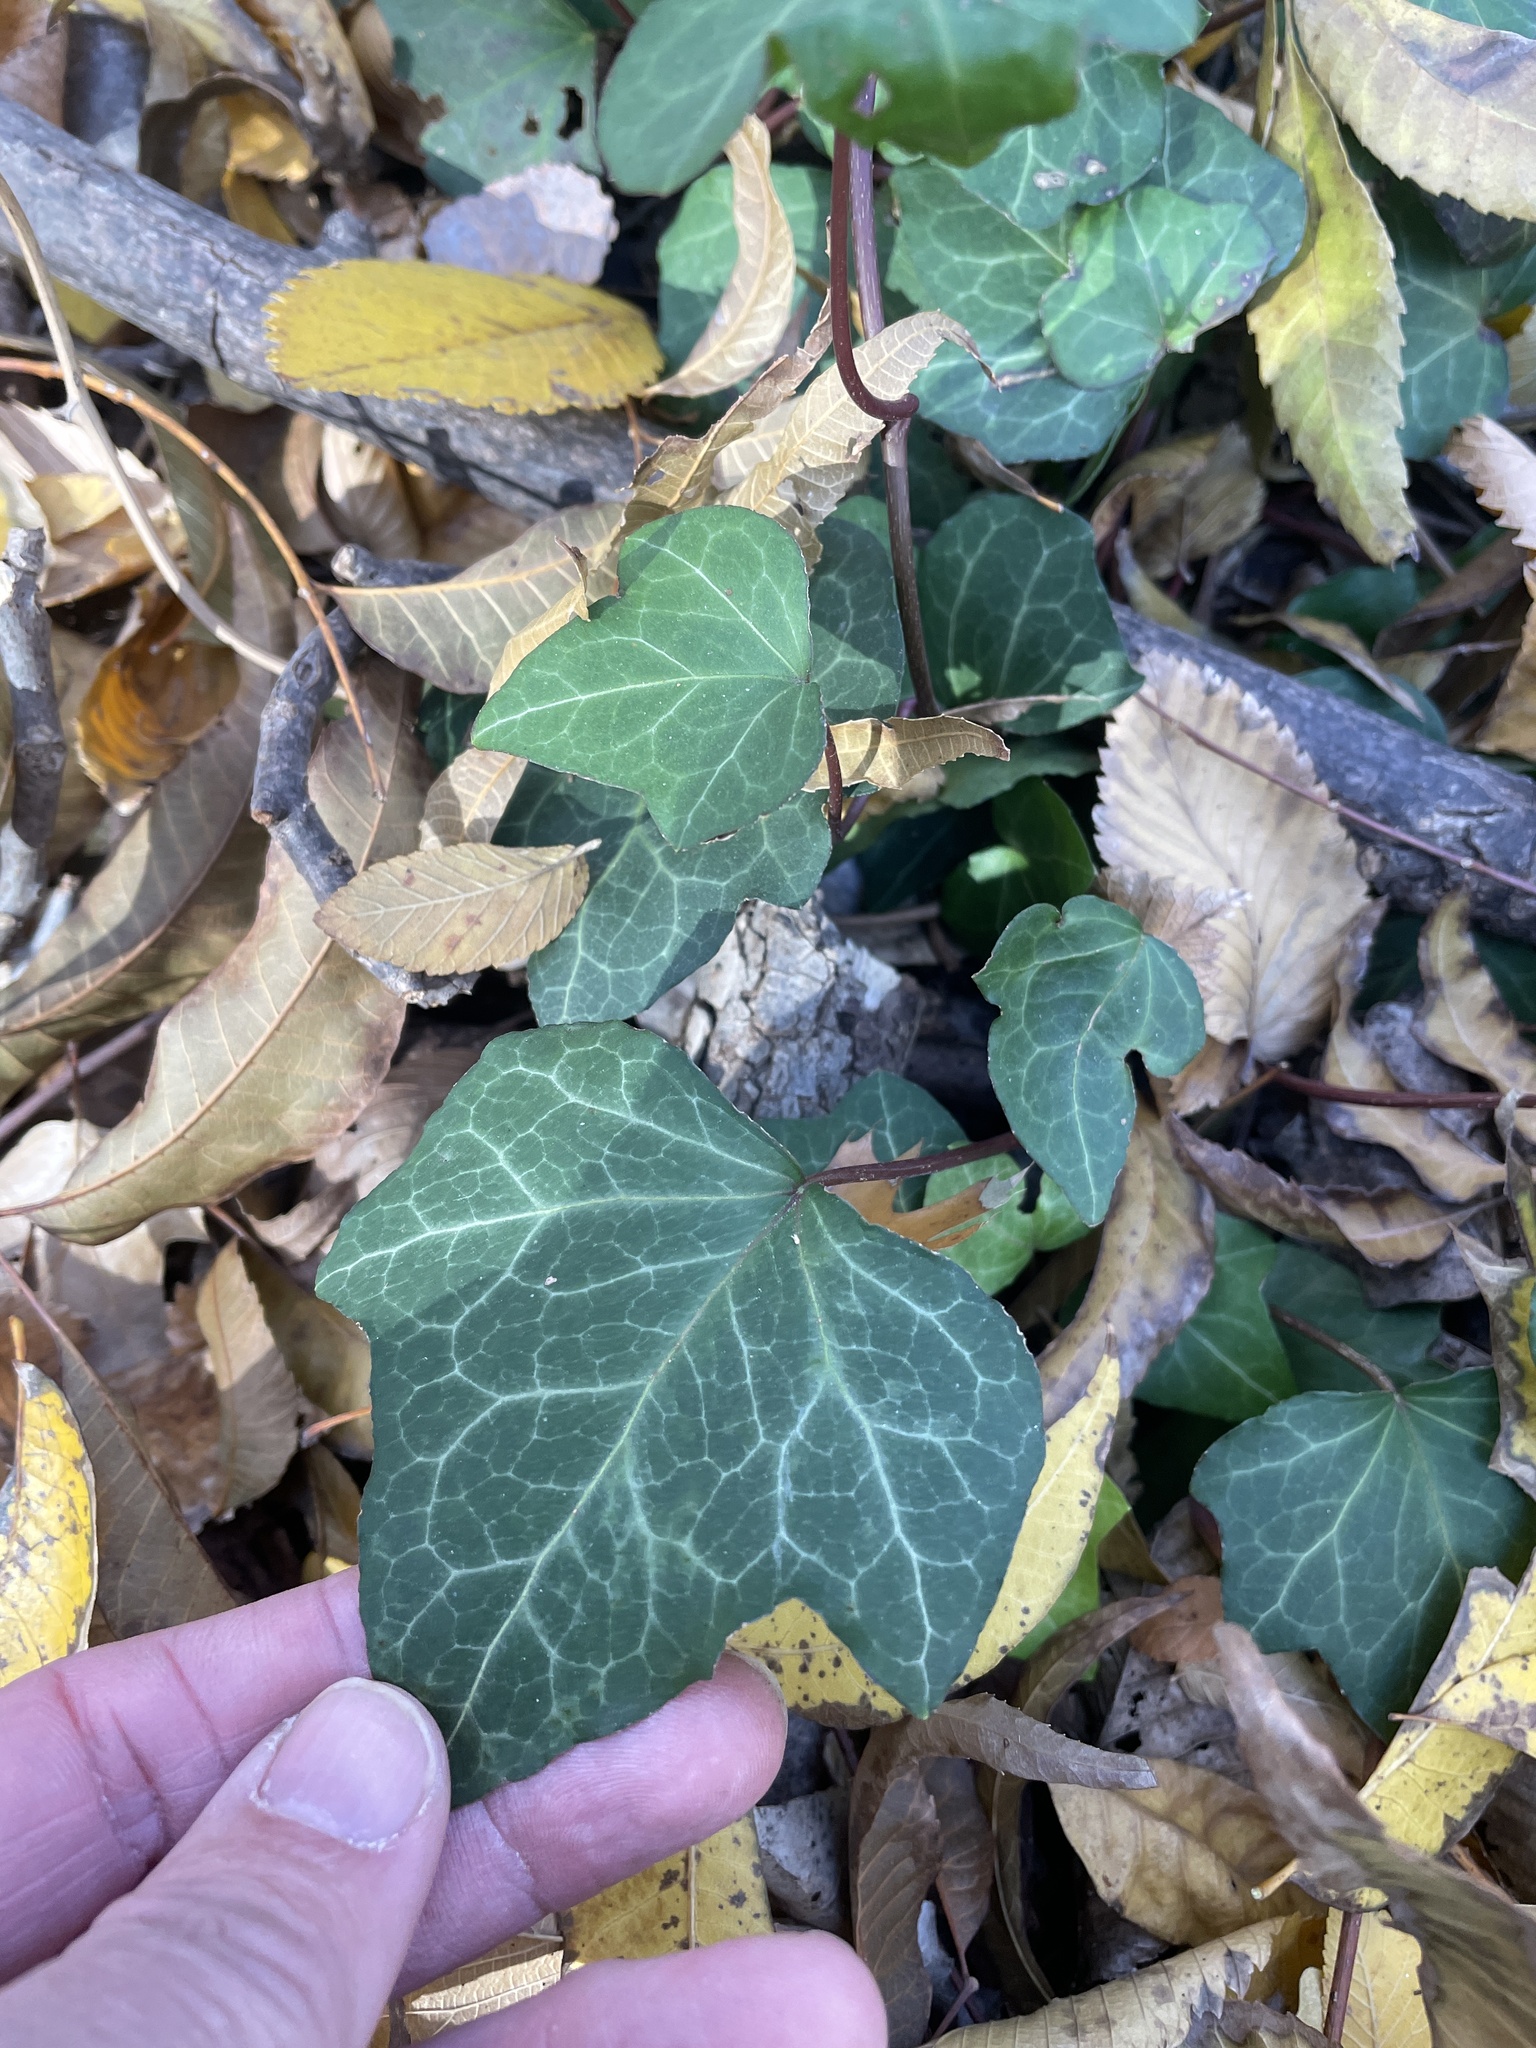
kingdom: Plantae
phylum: Tracheophyta
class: Magnoliopsida
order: Apiales
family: Araliaceae
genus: Hedera
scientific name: Hedera helix
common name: Ivy
